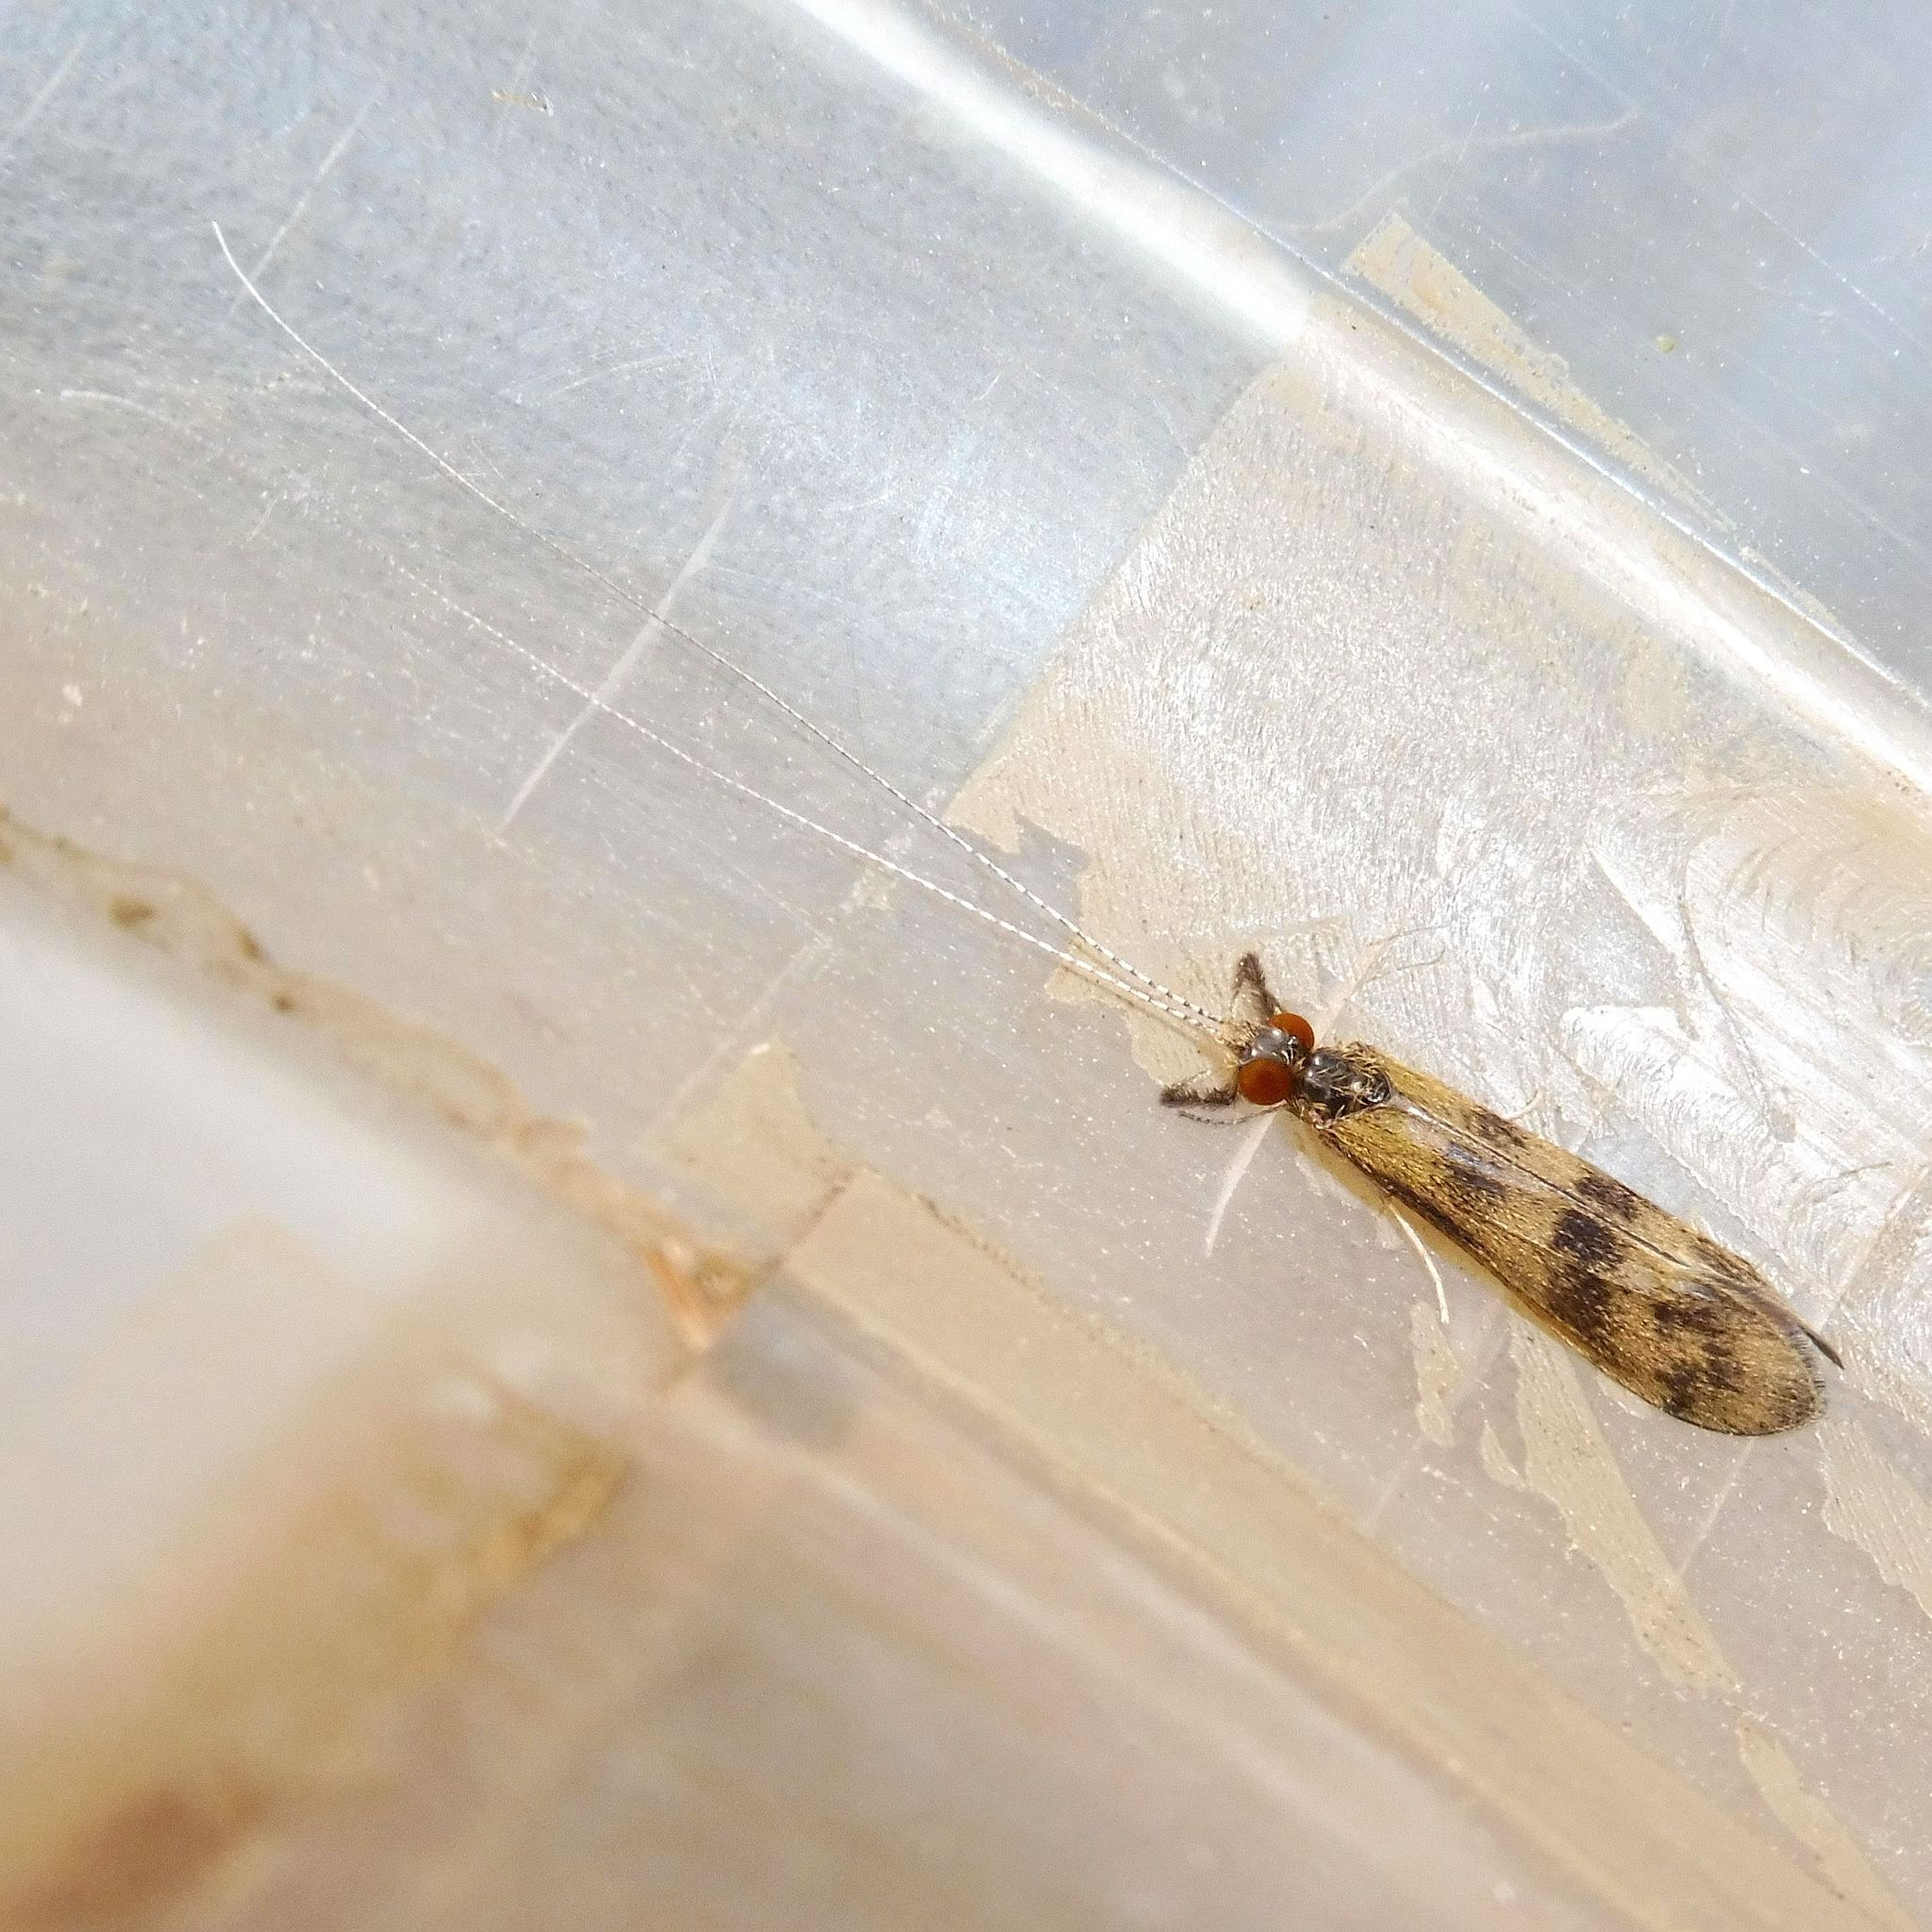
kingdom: Animalia
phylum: Arthropoda
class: Insecta
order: Trichoptera
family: Leptoceridae
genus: Mystacides
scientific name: Mystacides longicornis
